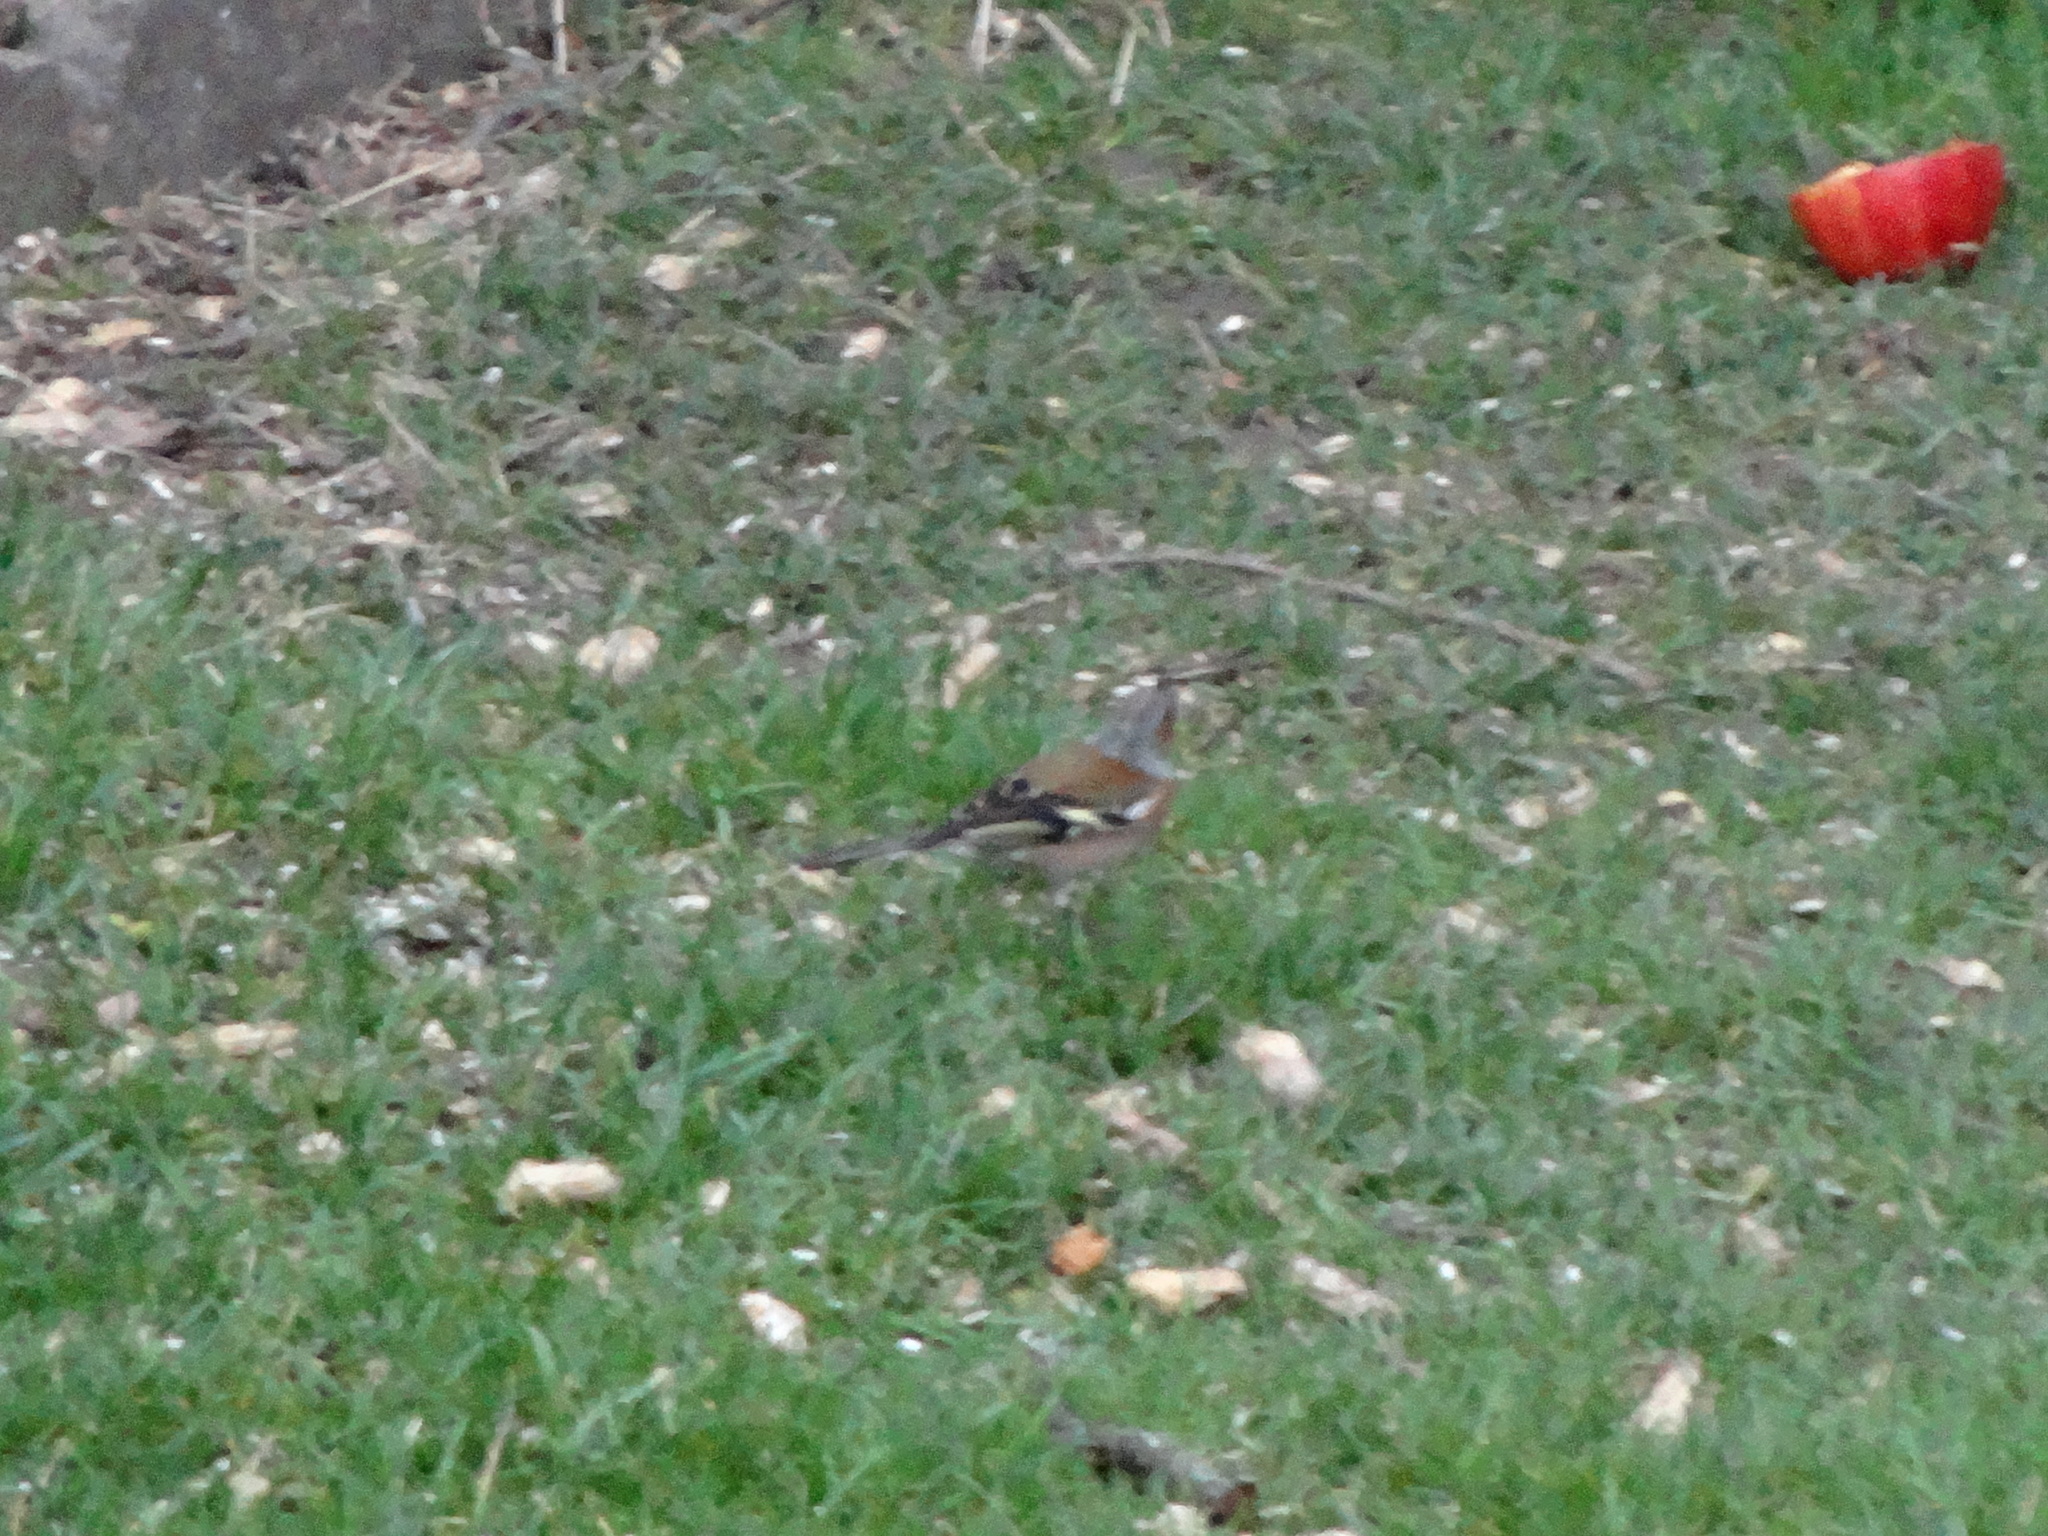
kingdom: Animalia
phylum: Chordata
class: Aves
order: Passeriformes
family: Fringillidae
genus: Fringilla
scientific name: Fringilla coelebs
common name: Common chaffinch
